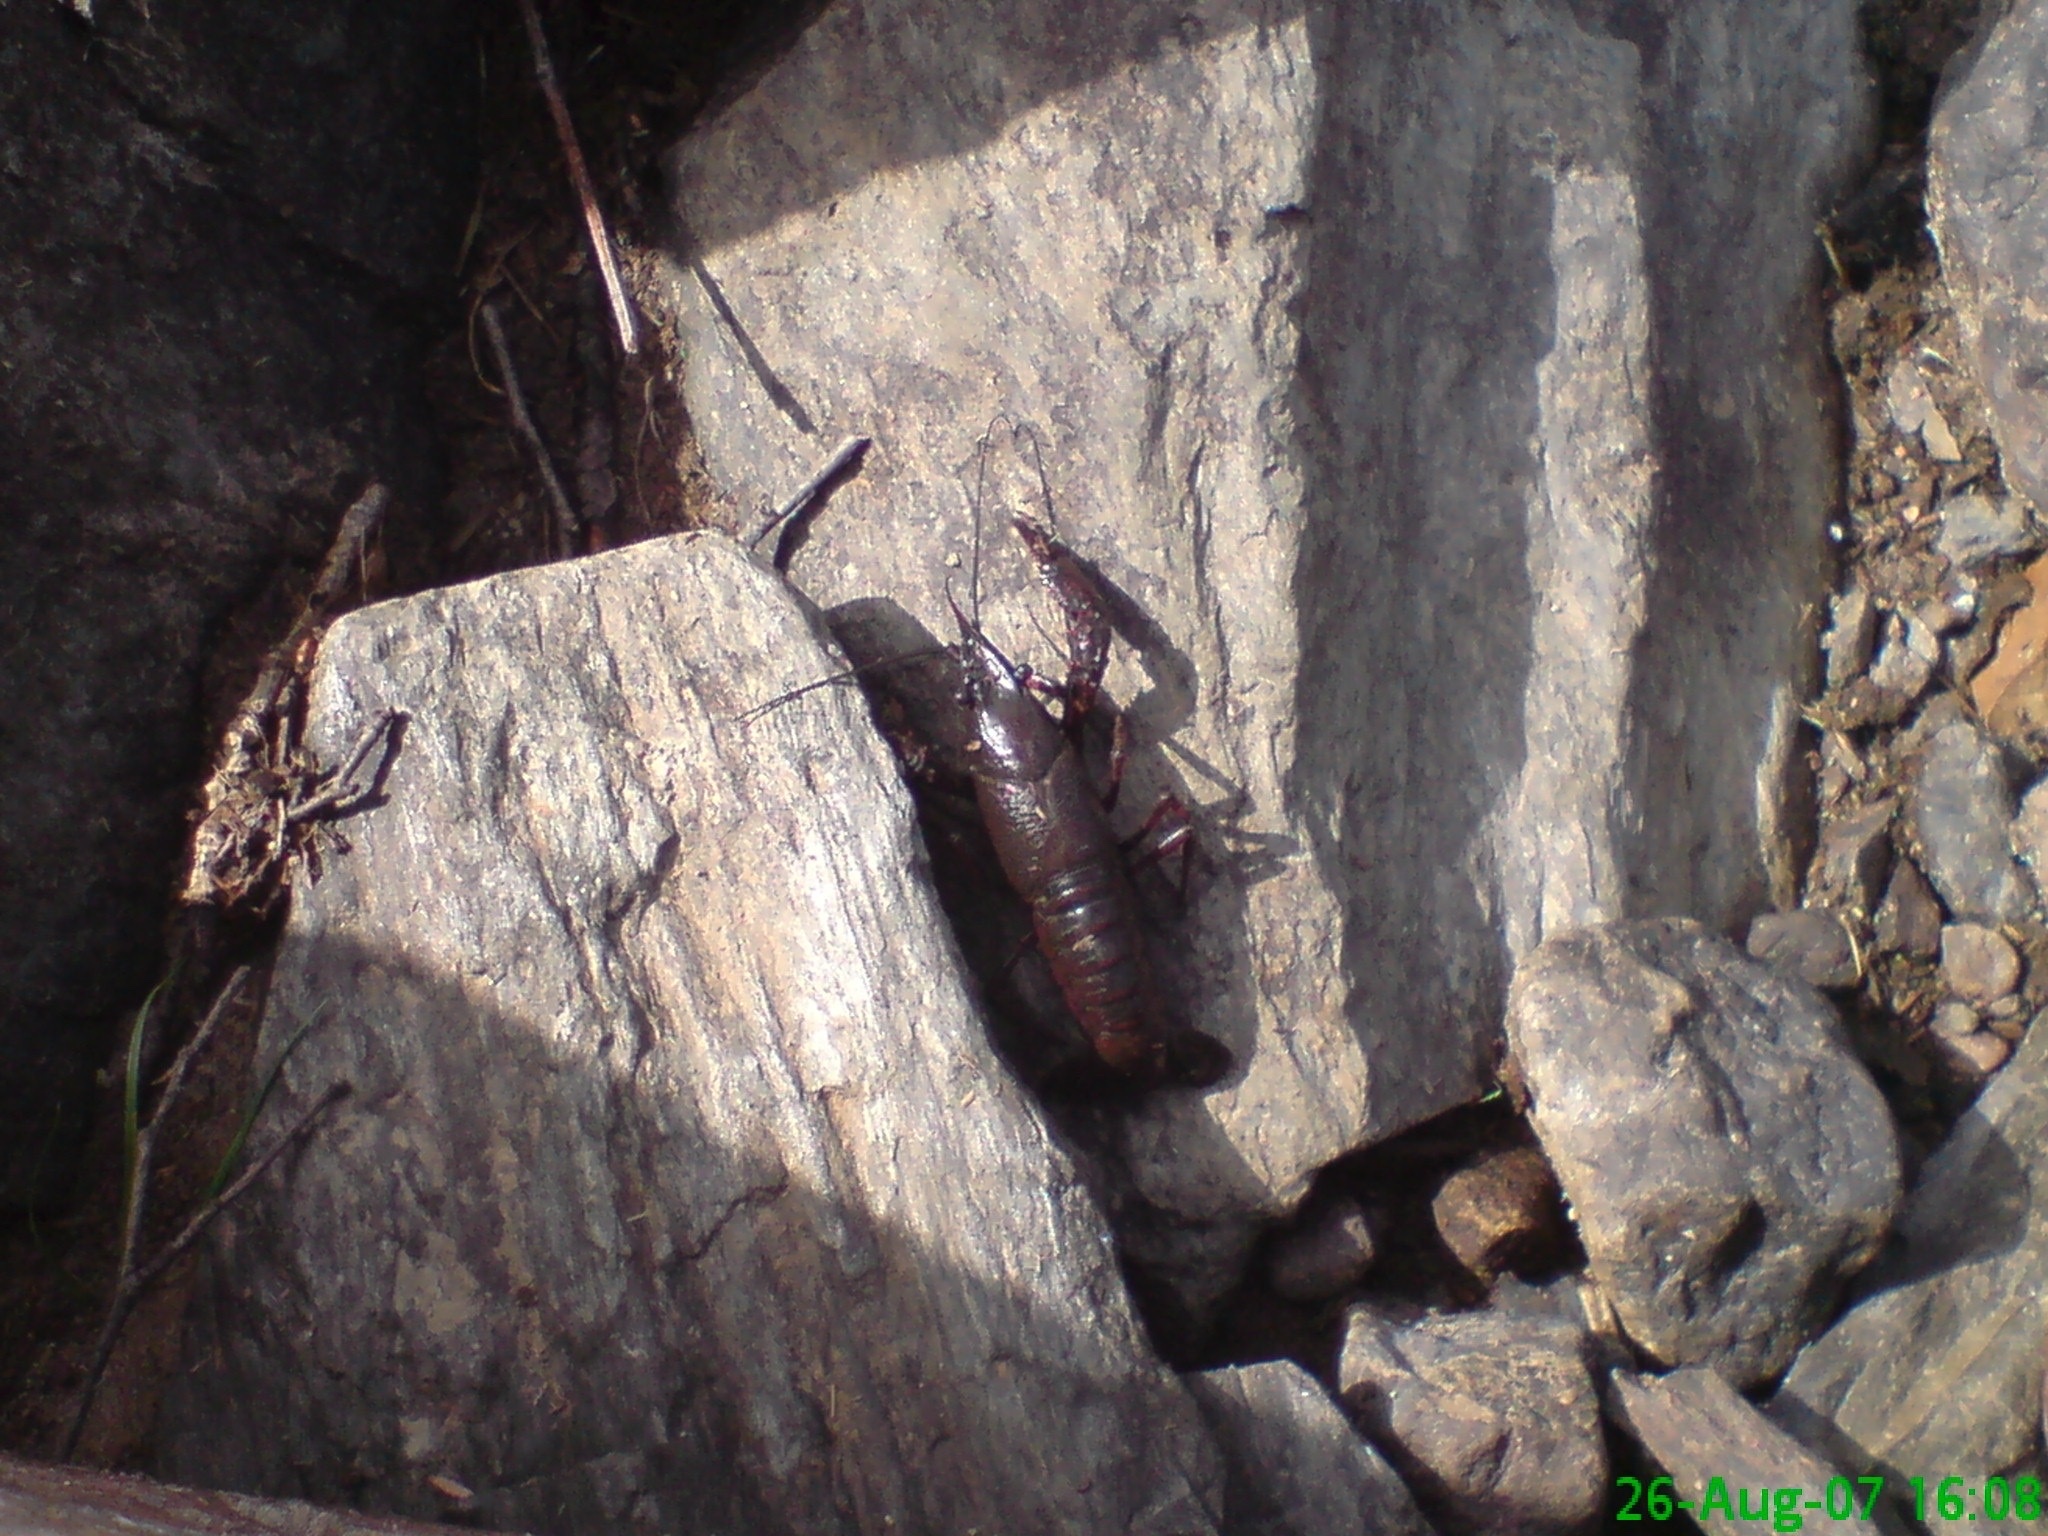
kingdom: Animalia
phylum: Arthropoda
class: Malacostraca
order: Decapoda
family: Cambaridae
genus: Procambarus
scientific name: Procambarus clarkii
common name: Red swamp crayfish
